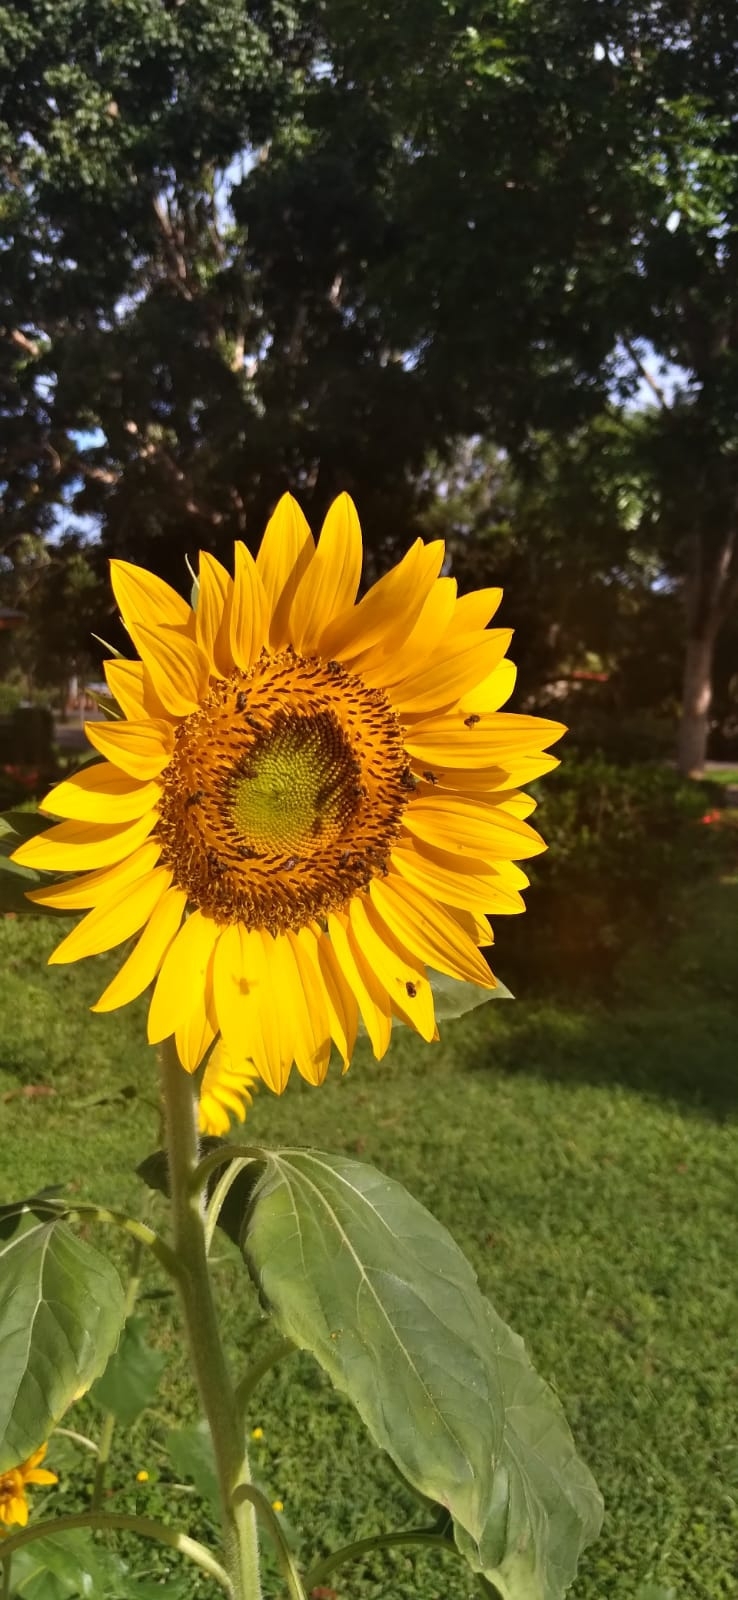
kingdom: Plantae
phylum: Tracheophyta
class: Magnoliopsida
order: Asterales
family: Asteraceae
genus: Helianthus
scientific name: Helianthus annuus
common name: Sunflower
